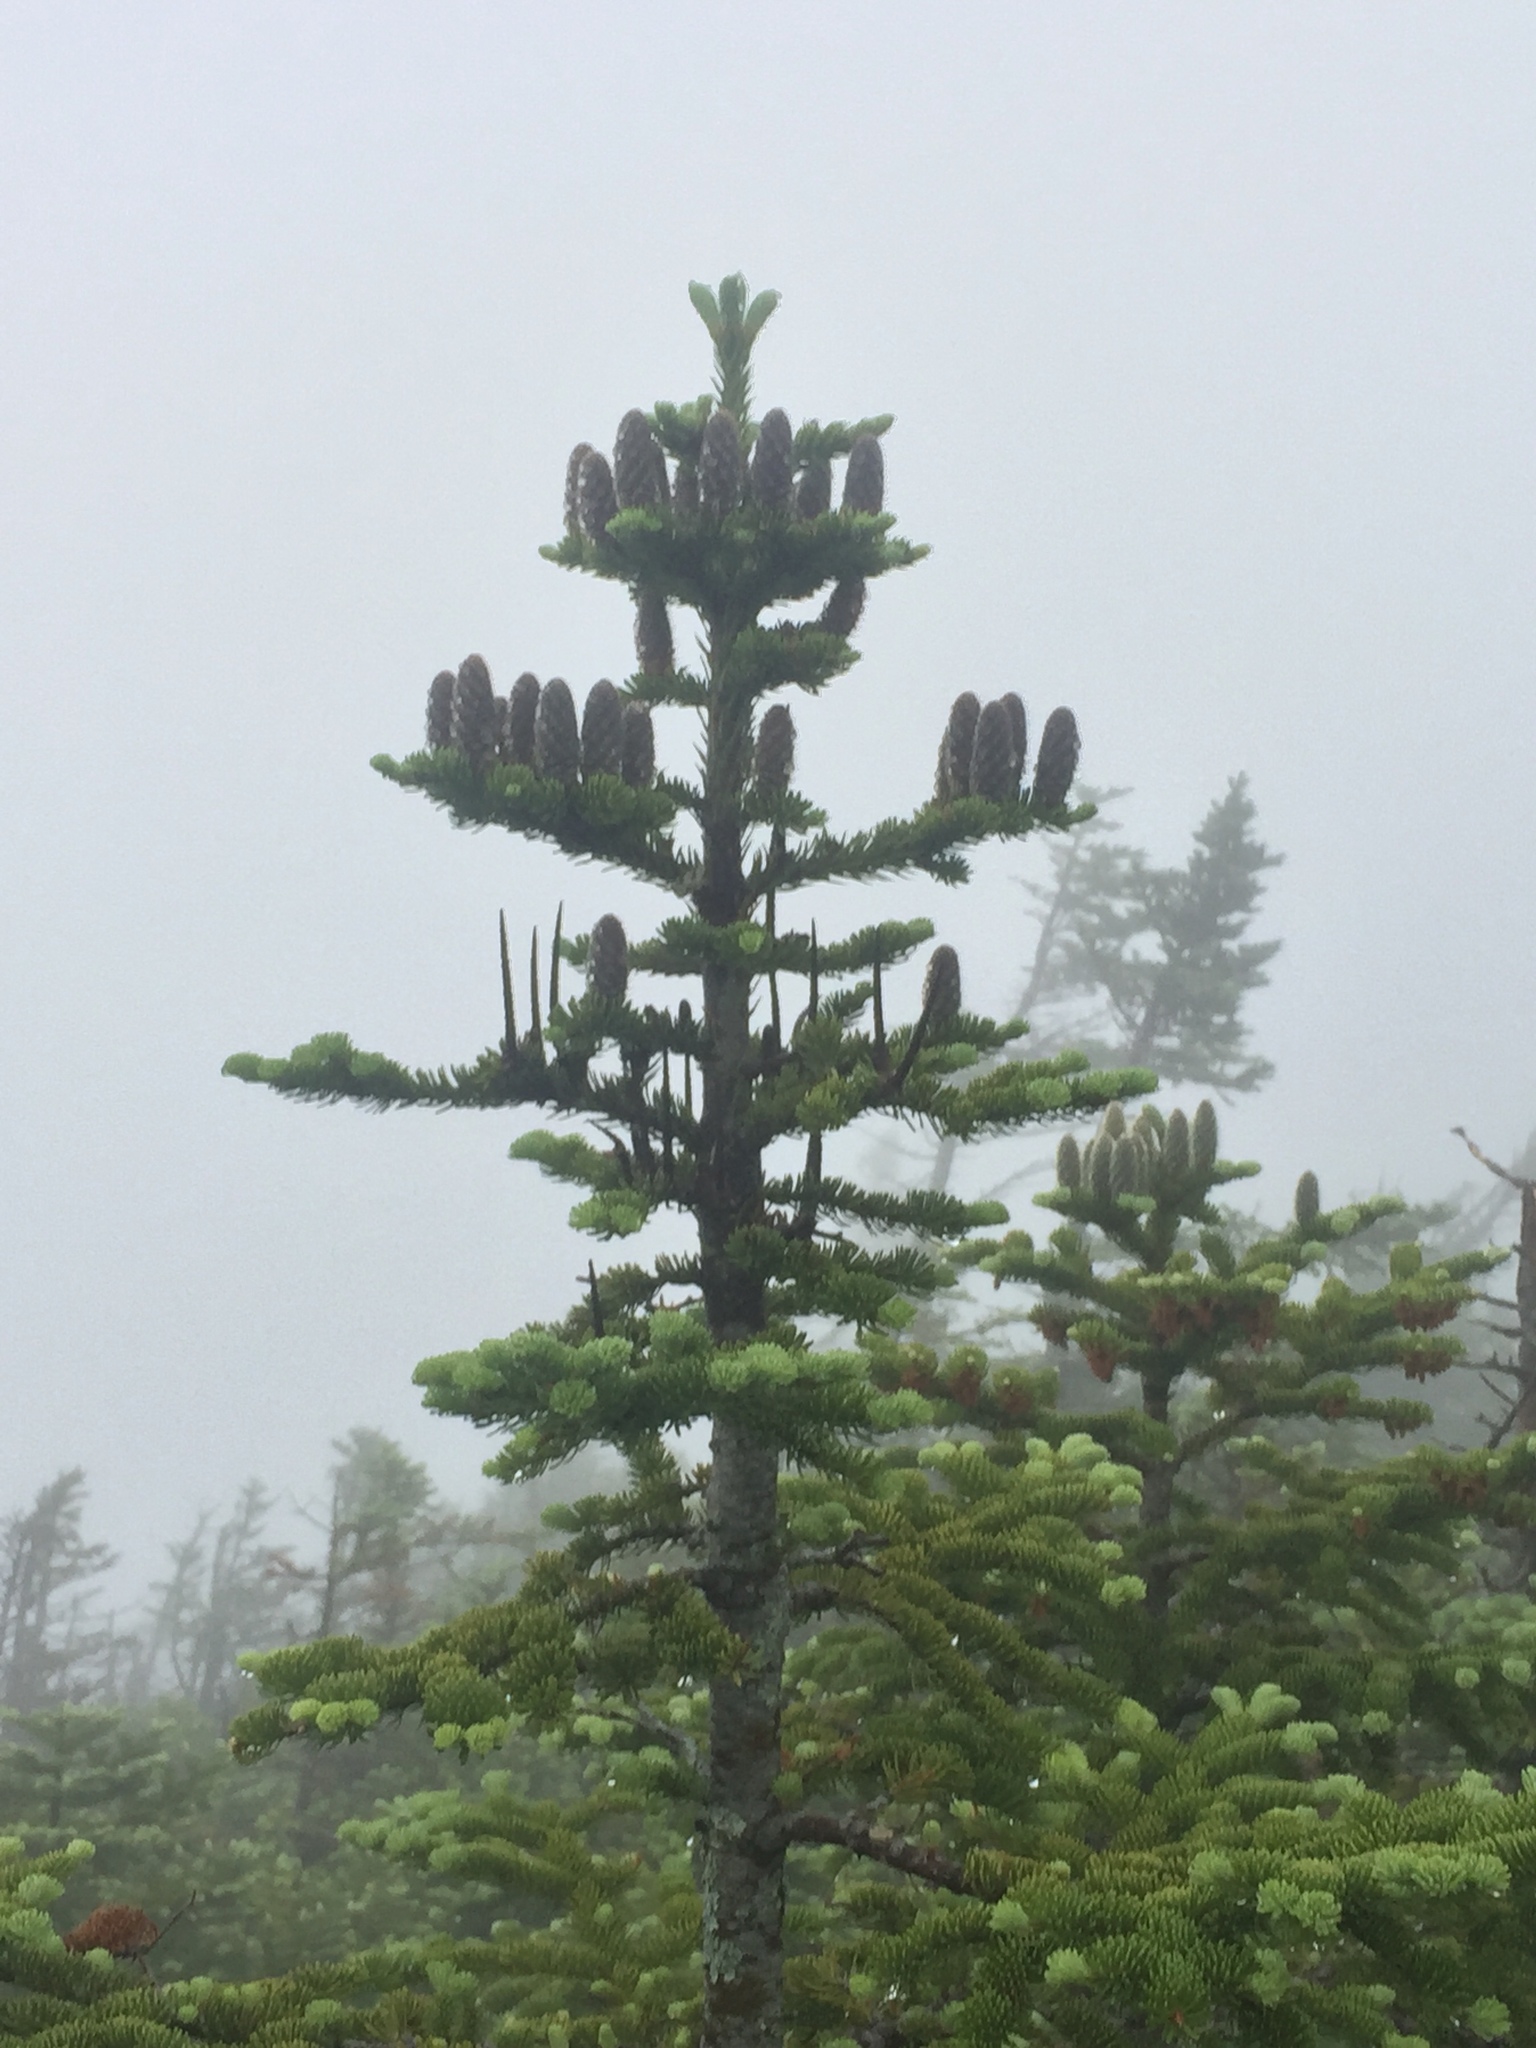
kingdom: Plantae
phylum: Tracheophyta
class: Pinopsida
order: Pinales
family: Pinaceae
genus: Abies
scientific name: Abies balsamea
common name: Balsam fir
